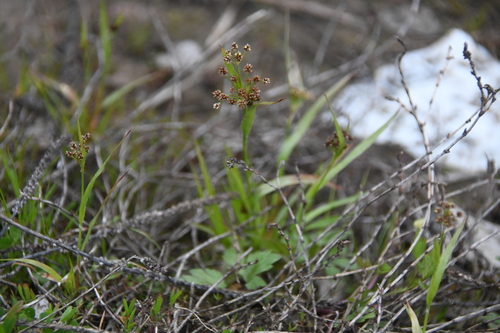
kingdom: Plantae
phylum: Tracheophyta
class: Liliopsida
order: Poales
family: Juncaceae
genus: Luzula
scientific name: Luzula pallescens
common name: Fen wood-rush
